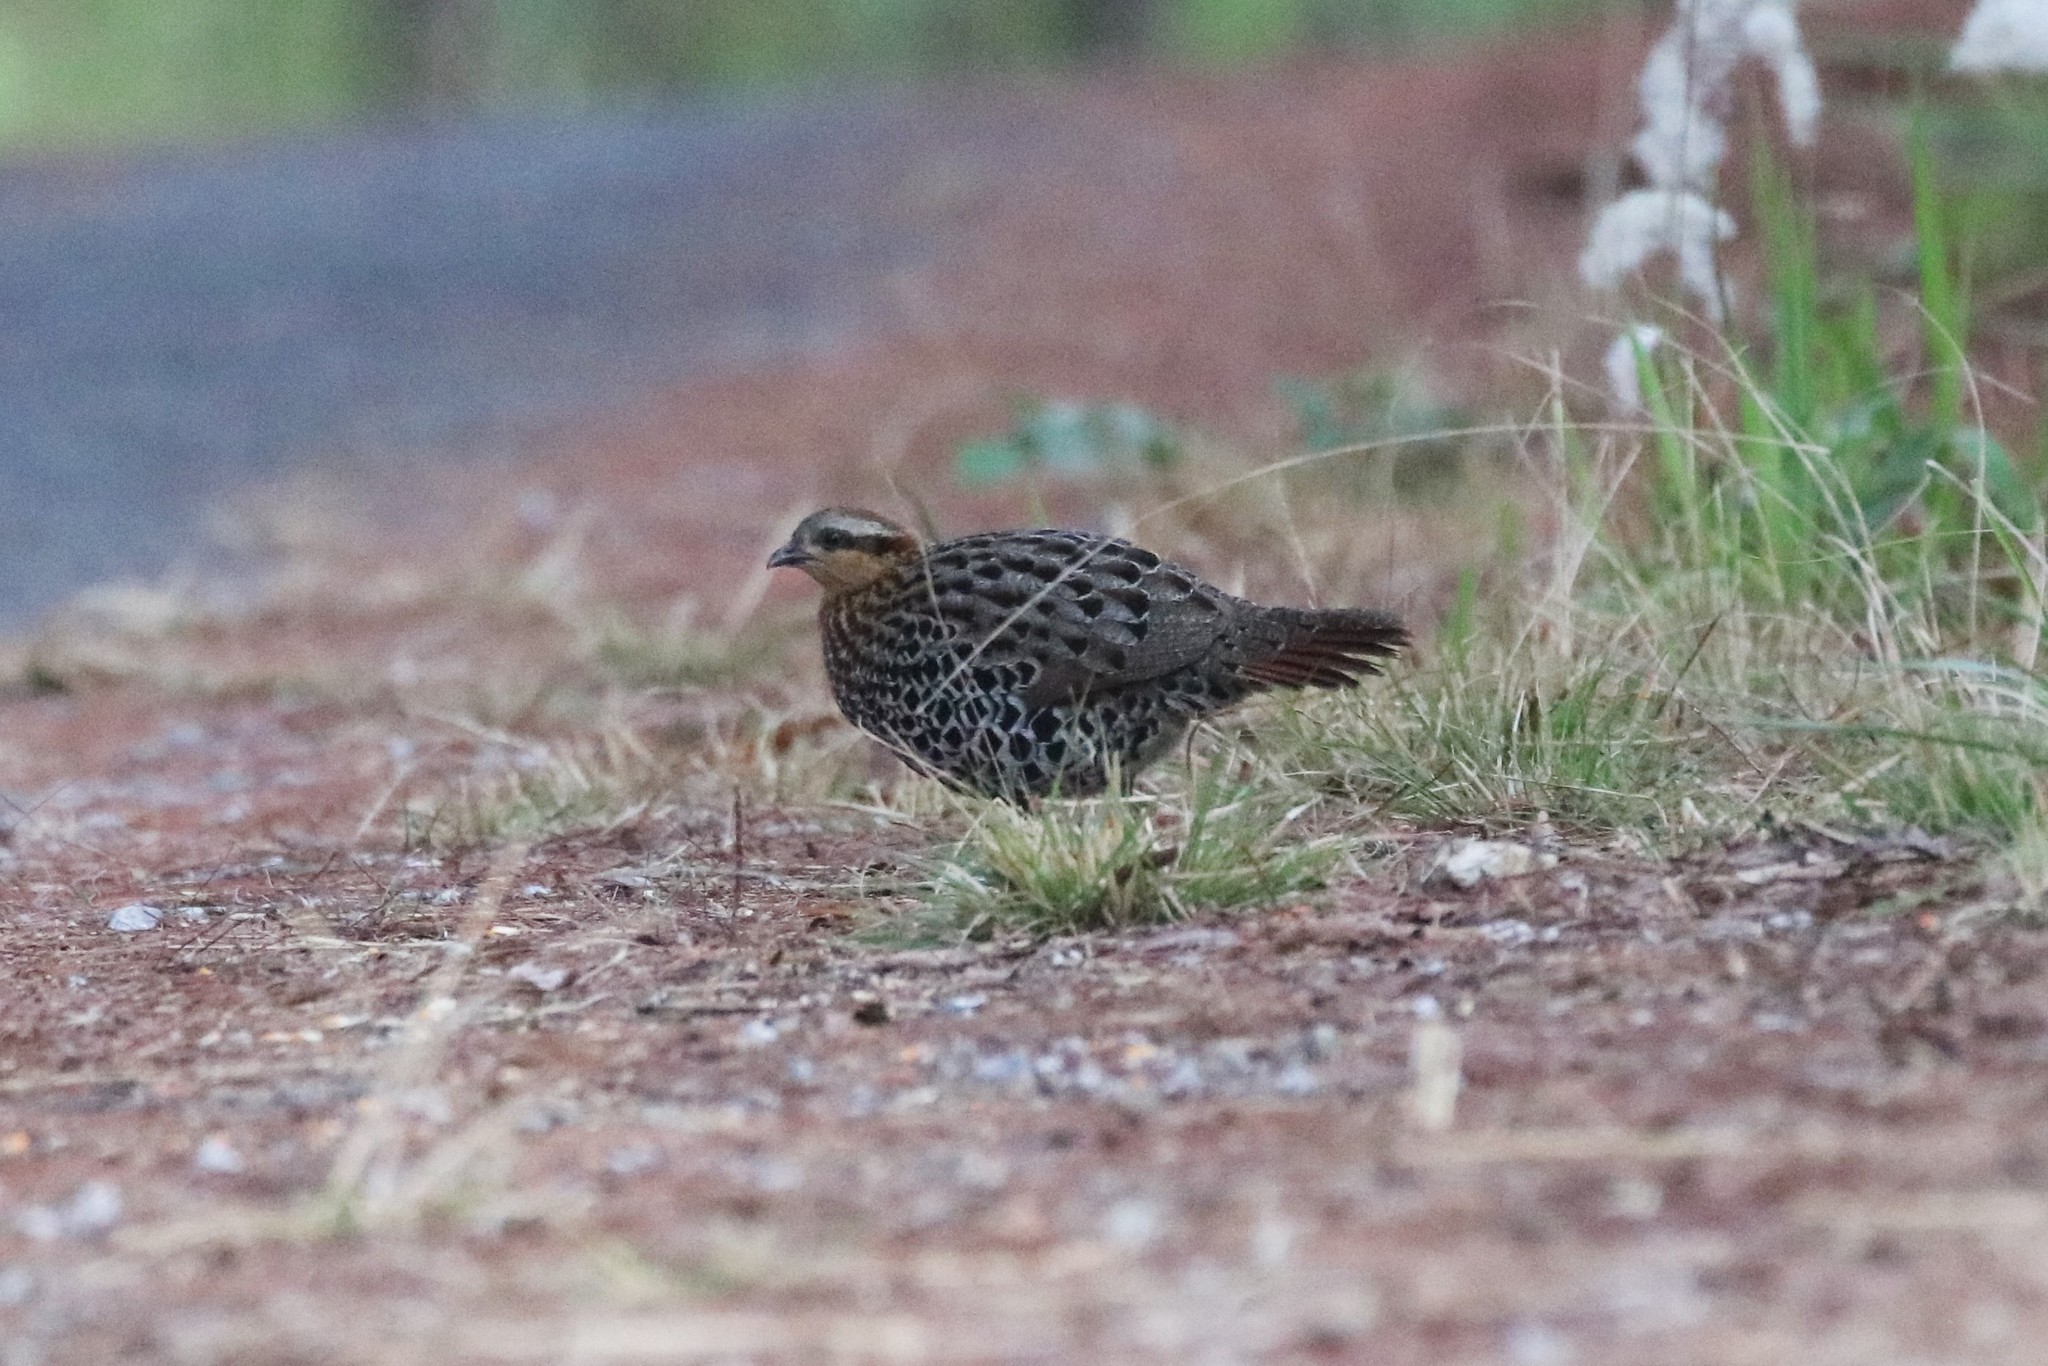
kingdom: Animalia
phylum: Chordata
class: Aves
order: Galliformes
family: Phasianidae
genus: Bambusicola
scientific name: Bambusicola fytchii
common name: Mountain bamboo-partridge
